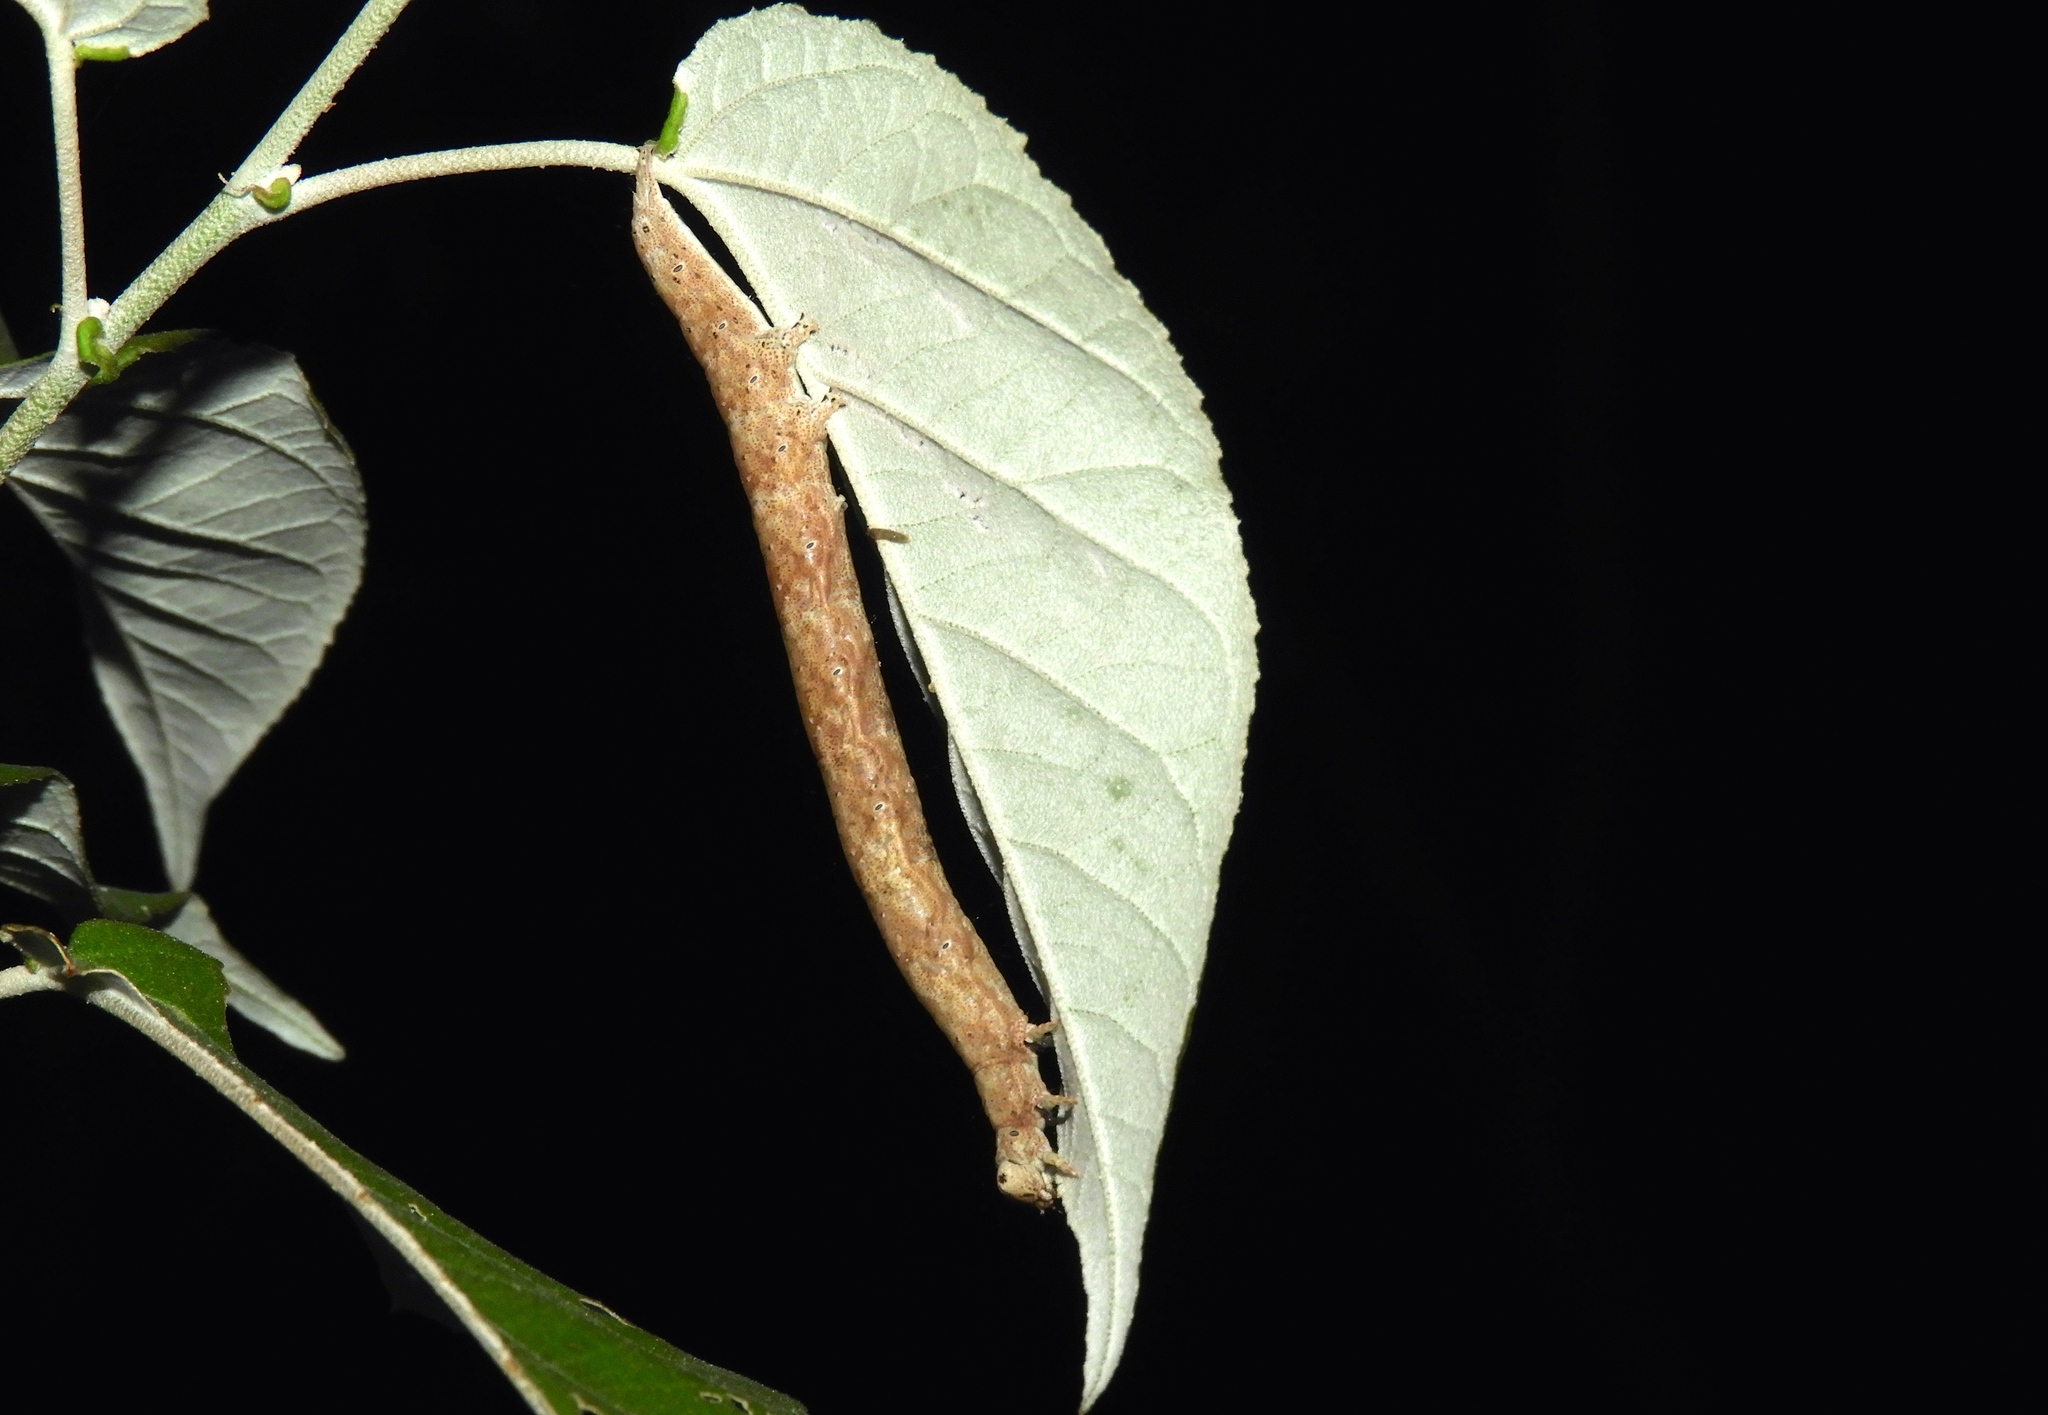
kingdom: Animalia
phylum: Arthropoda
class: Insecta
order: Lepidoptera
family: Erebidae
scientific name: Erebidae
